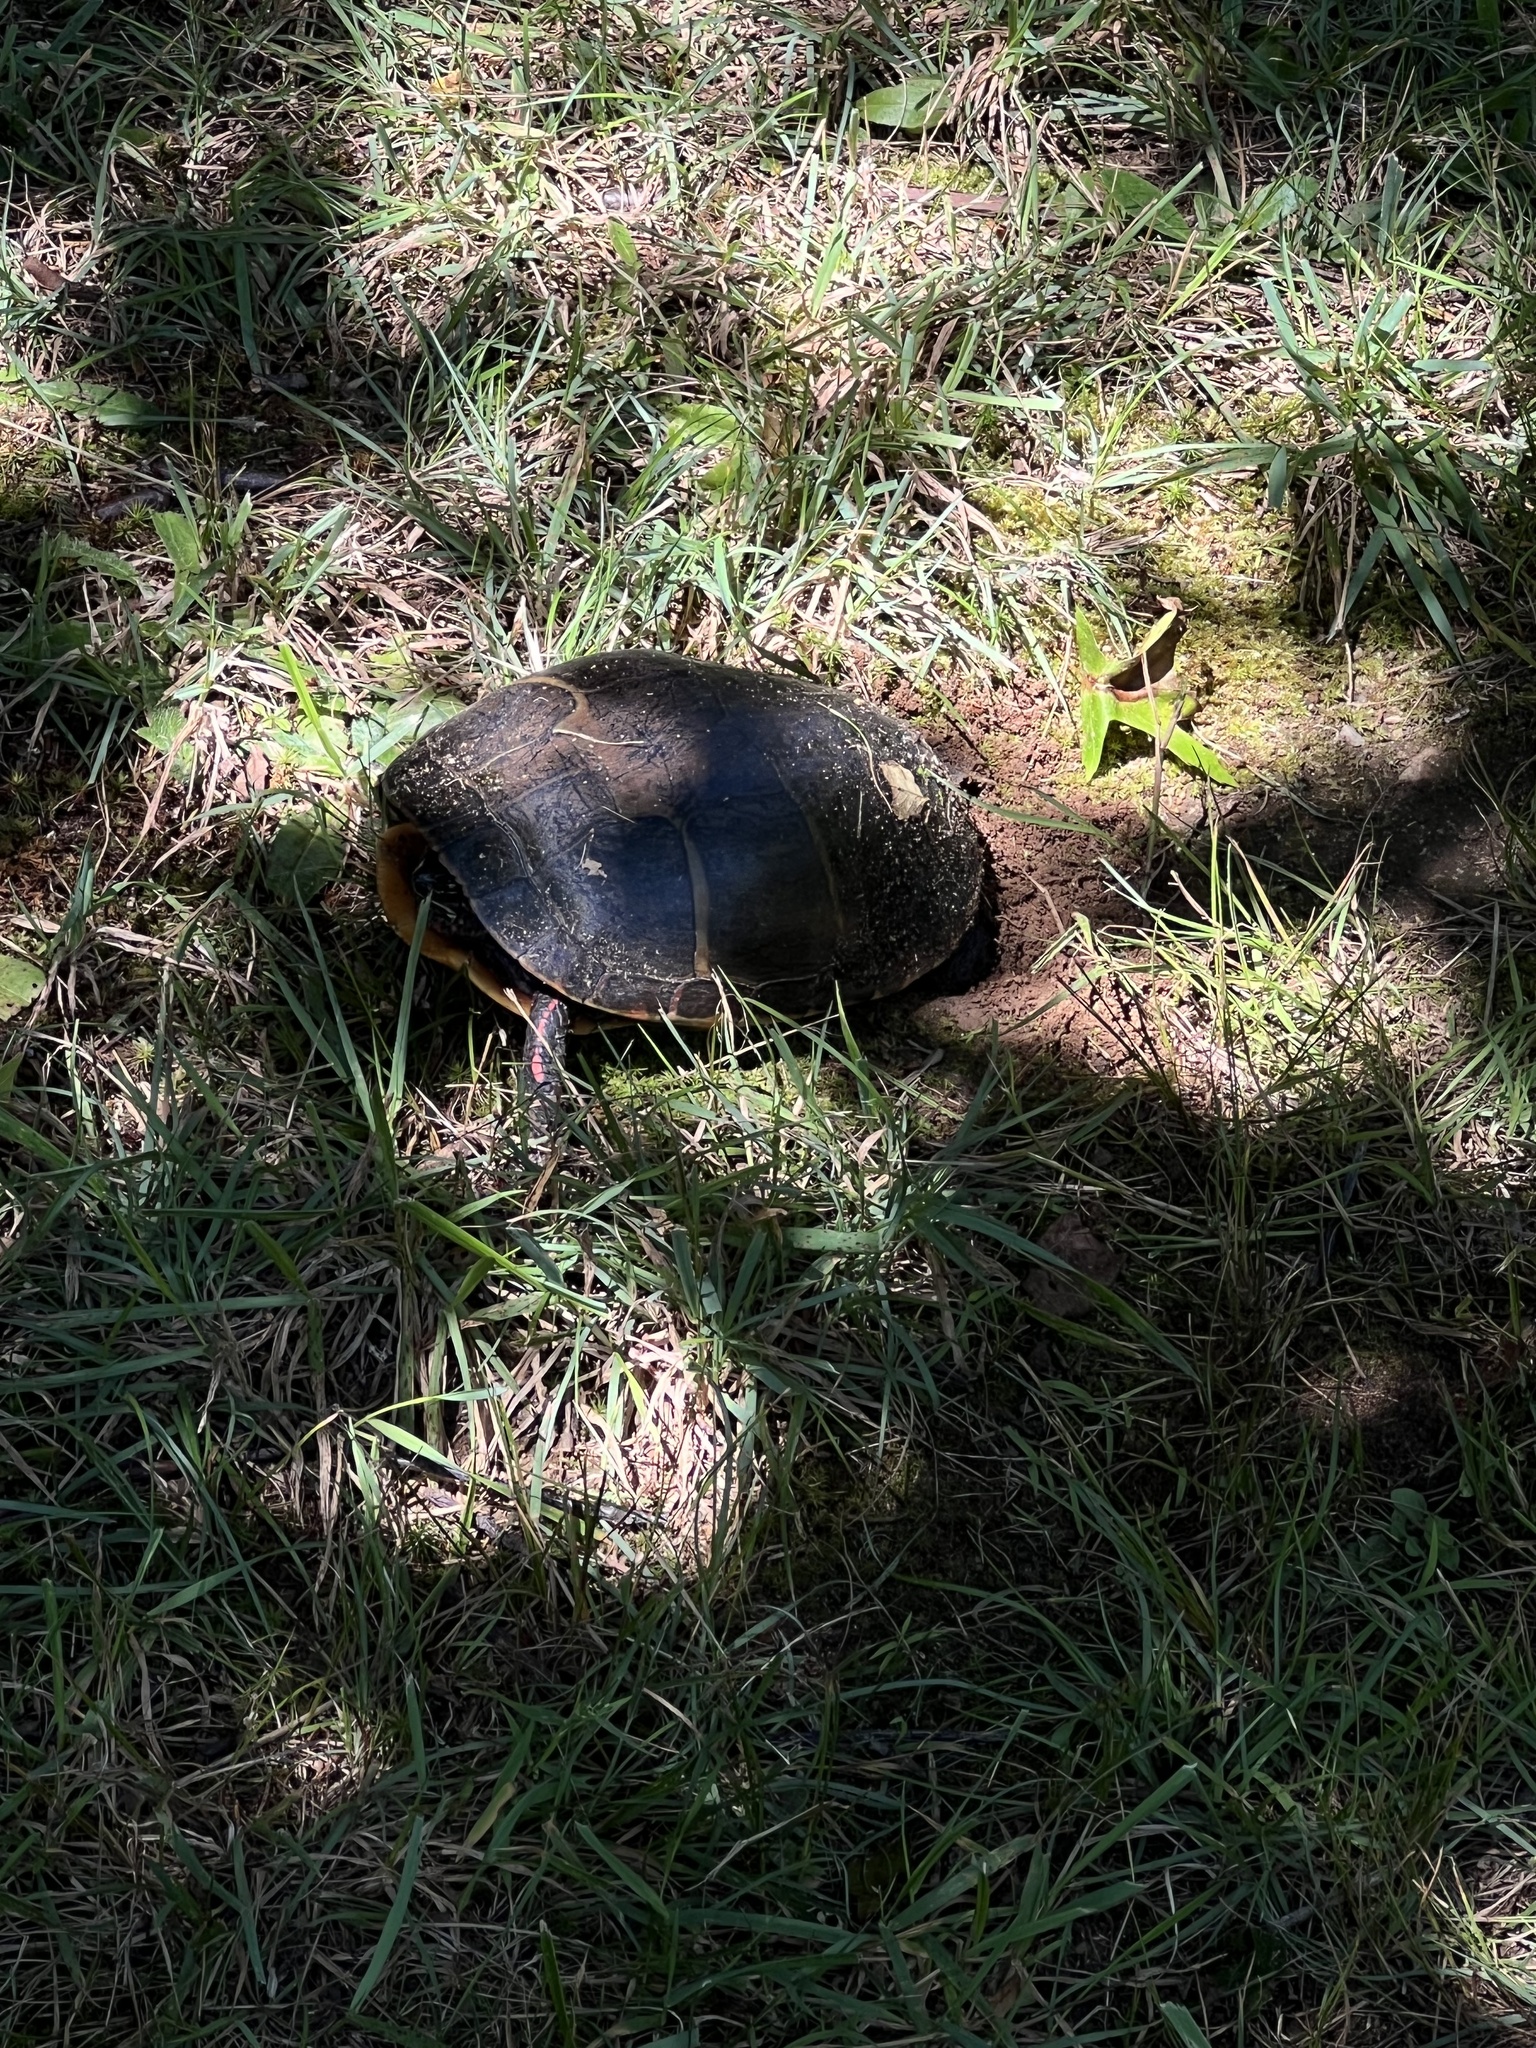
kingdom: Animalia
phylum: Chordata
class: Testudines
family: Emydidae
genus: Chrysemys
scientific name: Chrysemys picta
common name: Painted turtle
